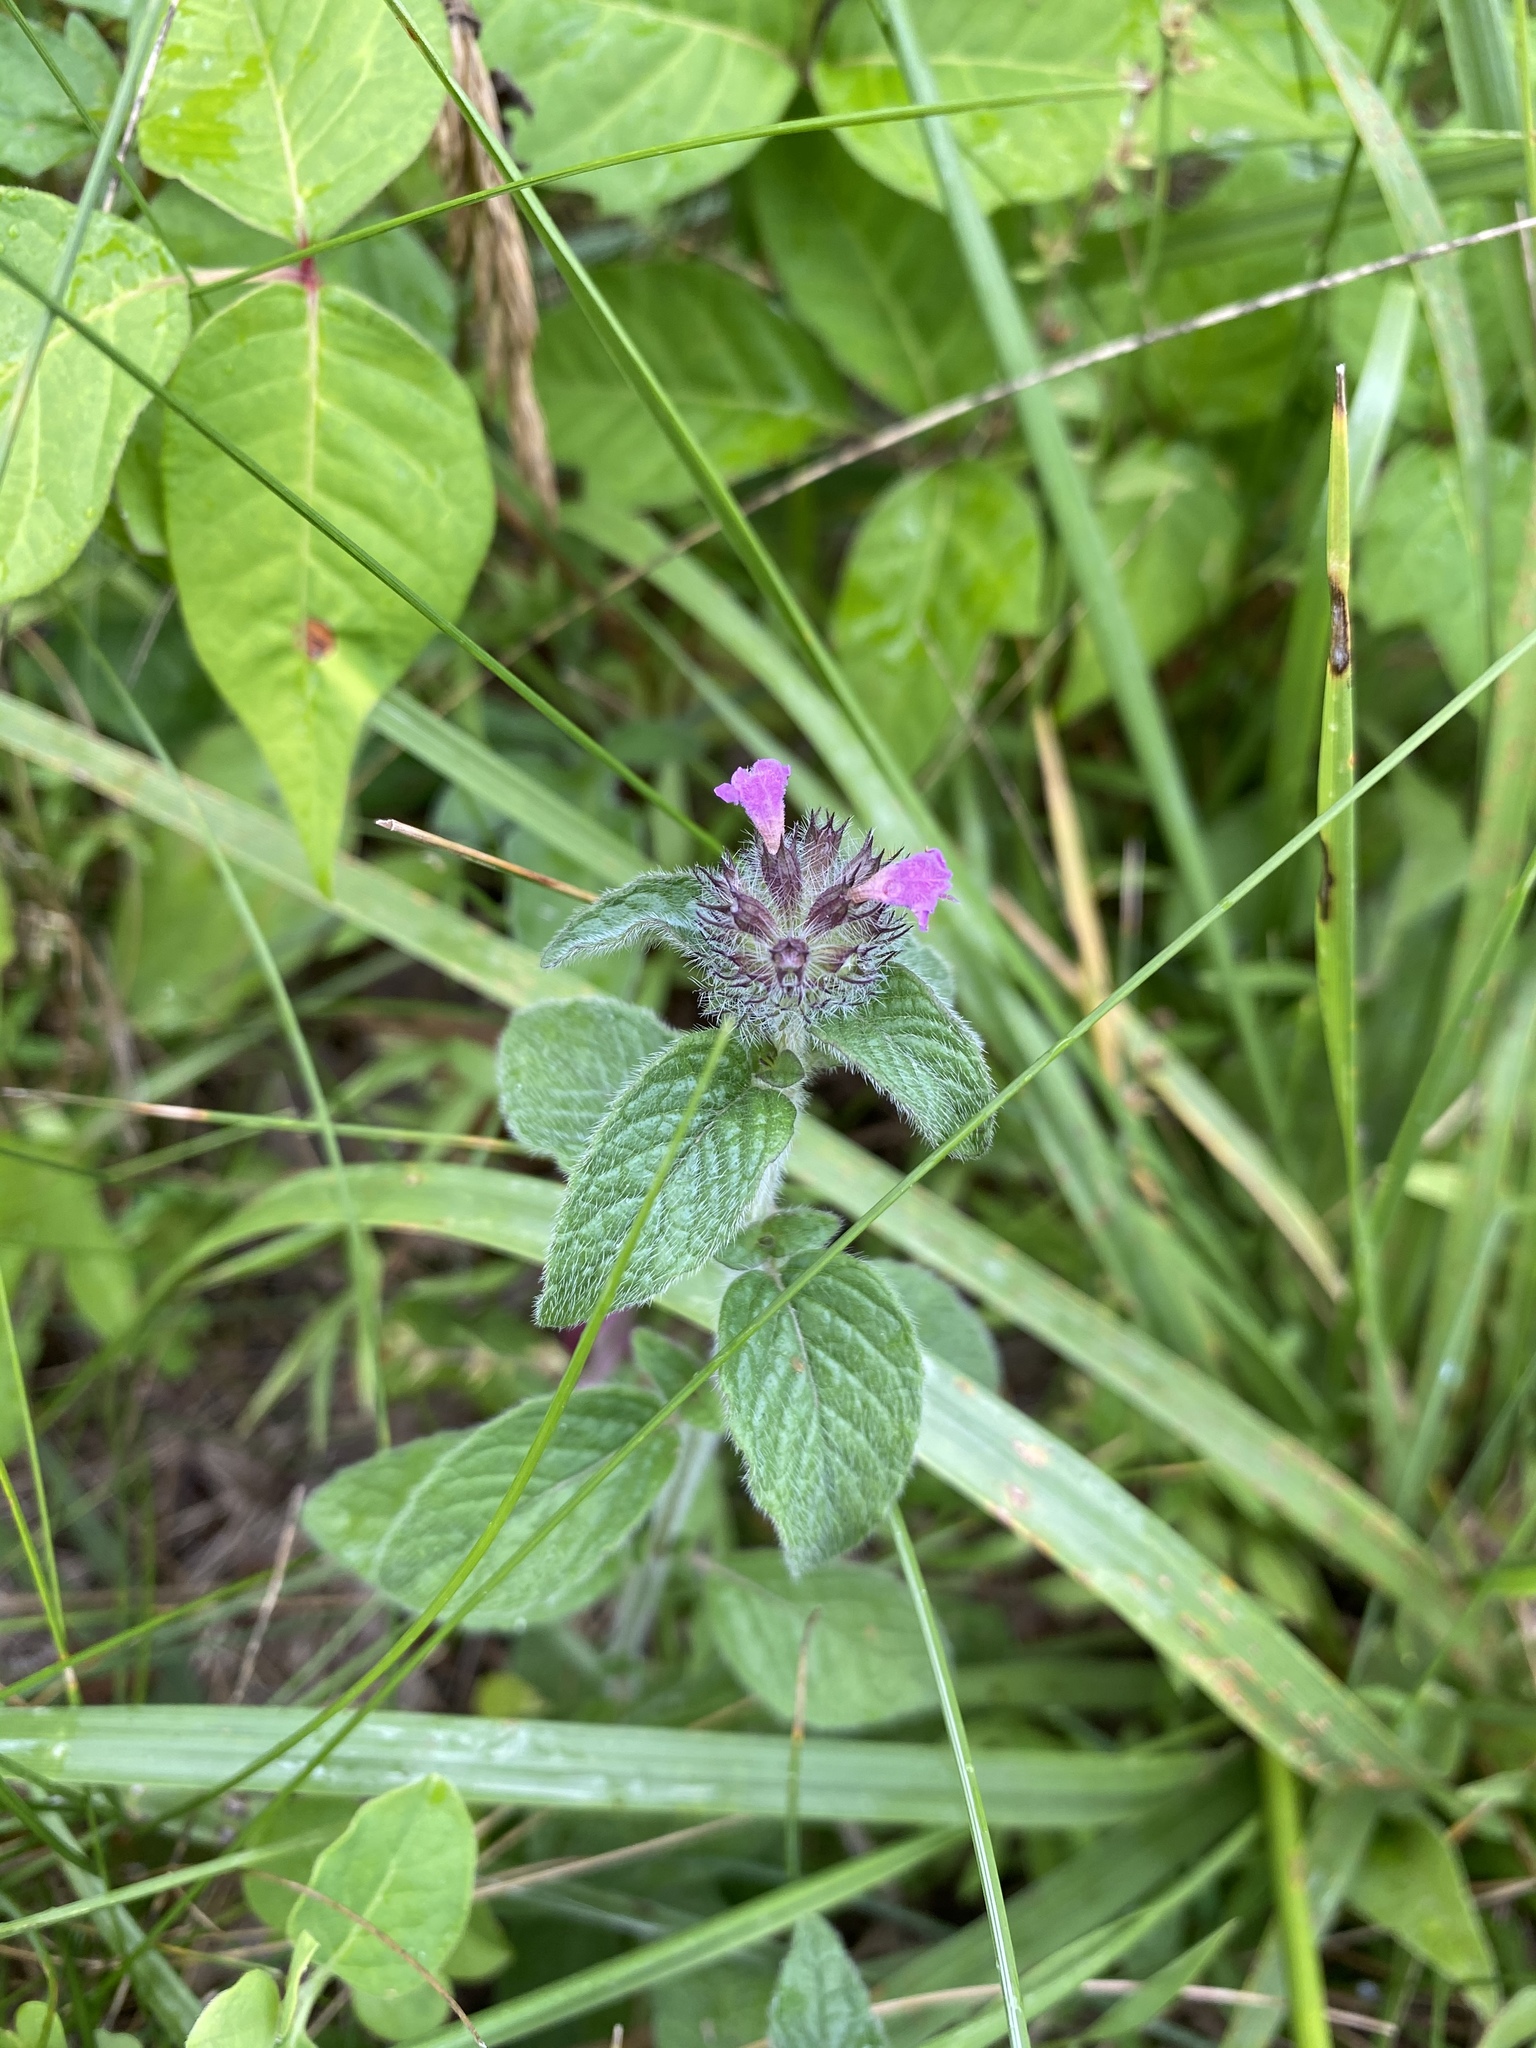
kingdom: Plantae
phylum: Tracheophyta
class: Magnoliopsida
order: Lamiales
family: Lamiaceae
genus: Clinopodium
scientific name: Clinopodium vulgare
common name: Wild basil
